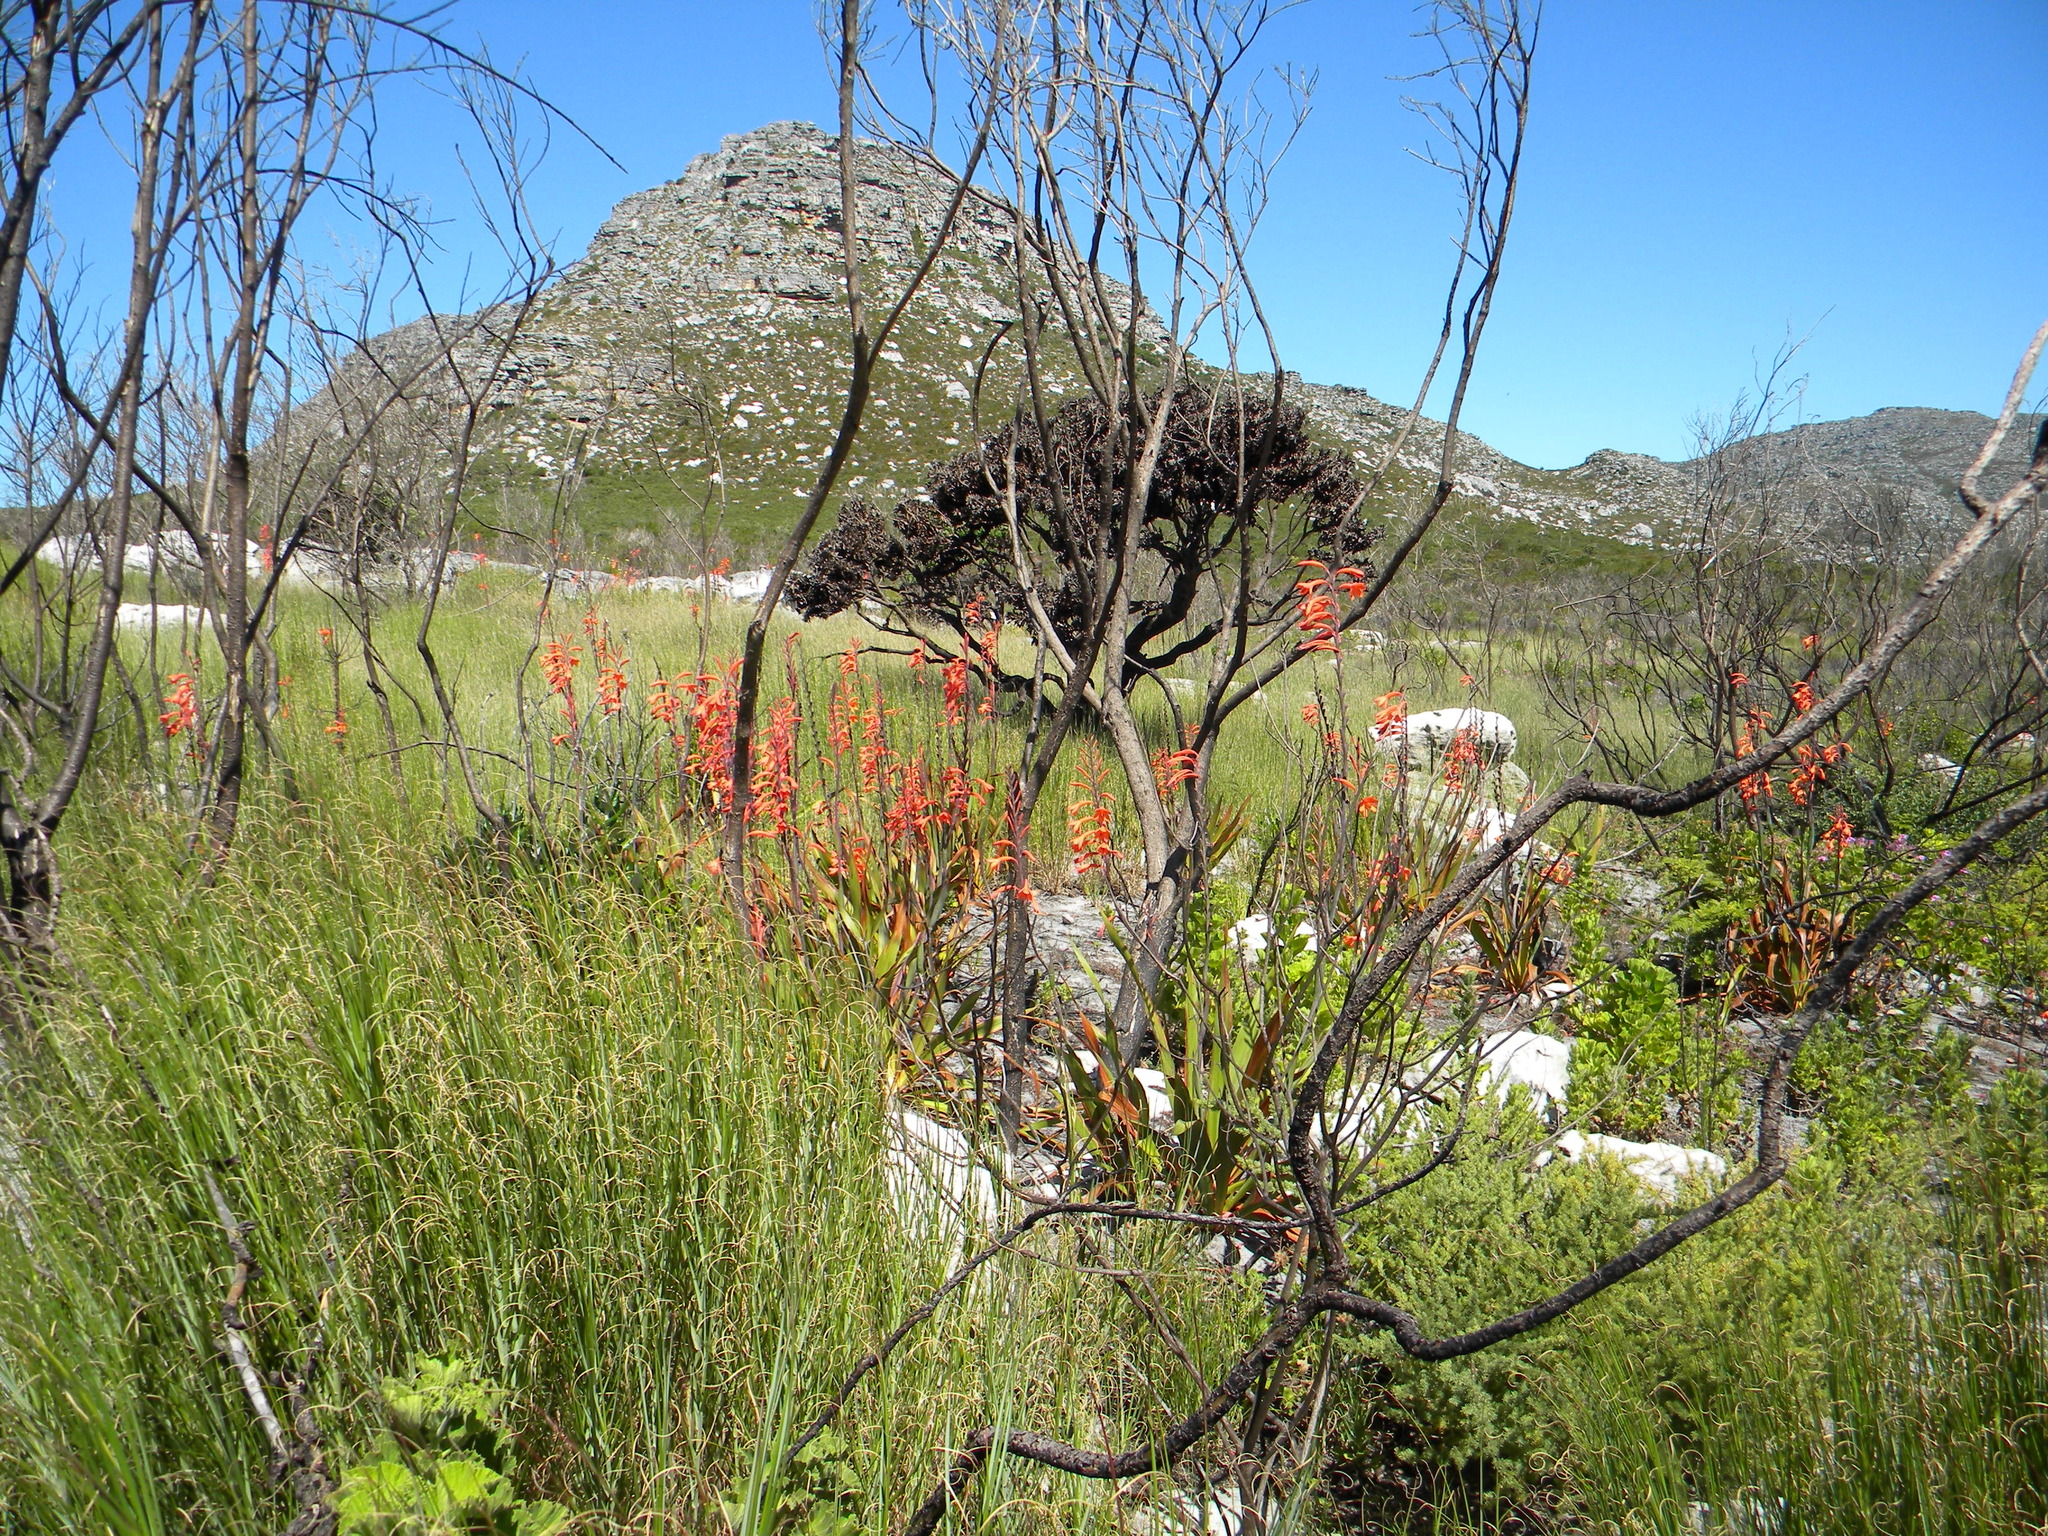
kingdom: Plantae
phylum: Tracheophyta
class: Liliopsida
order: Asparagales
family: Iridaceae
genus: Watsonia
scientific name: Watsonia tabularis
